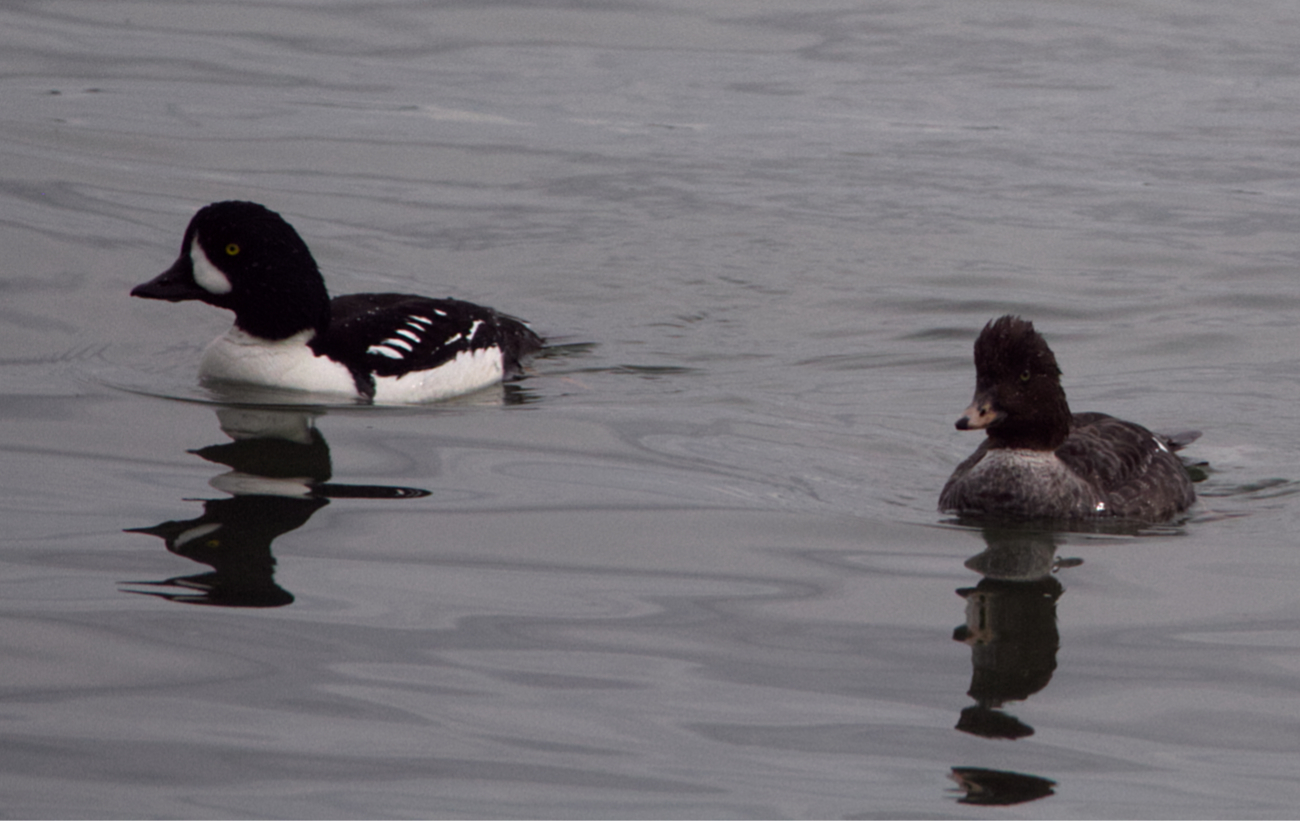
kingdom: Animalia
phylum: Chordata
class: Aves
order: Anseriformes
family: Anatidae
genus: Bucephala
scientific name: Bucephala islandica
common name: Barrow's goldeneye
